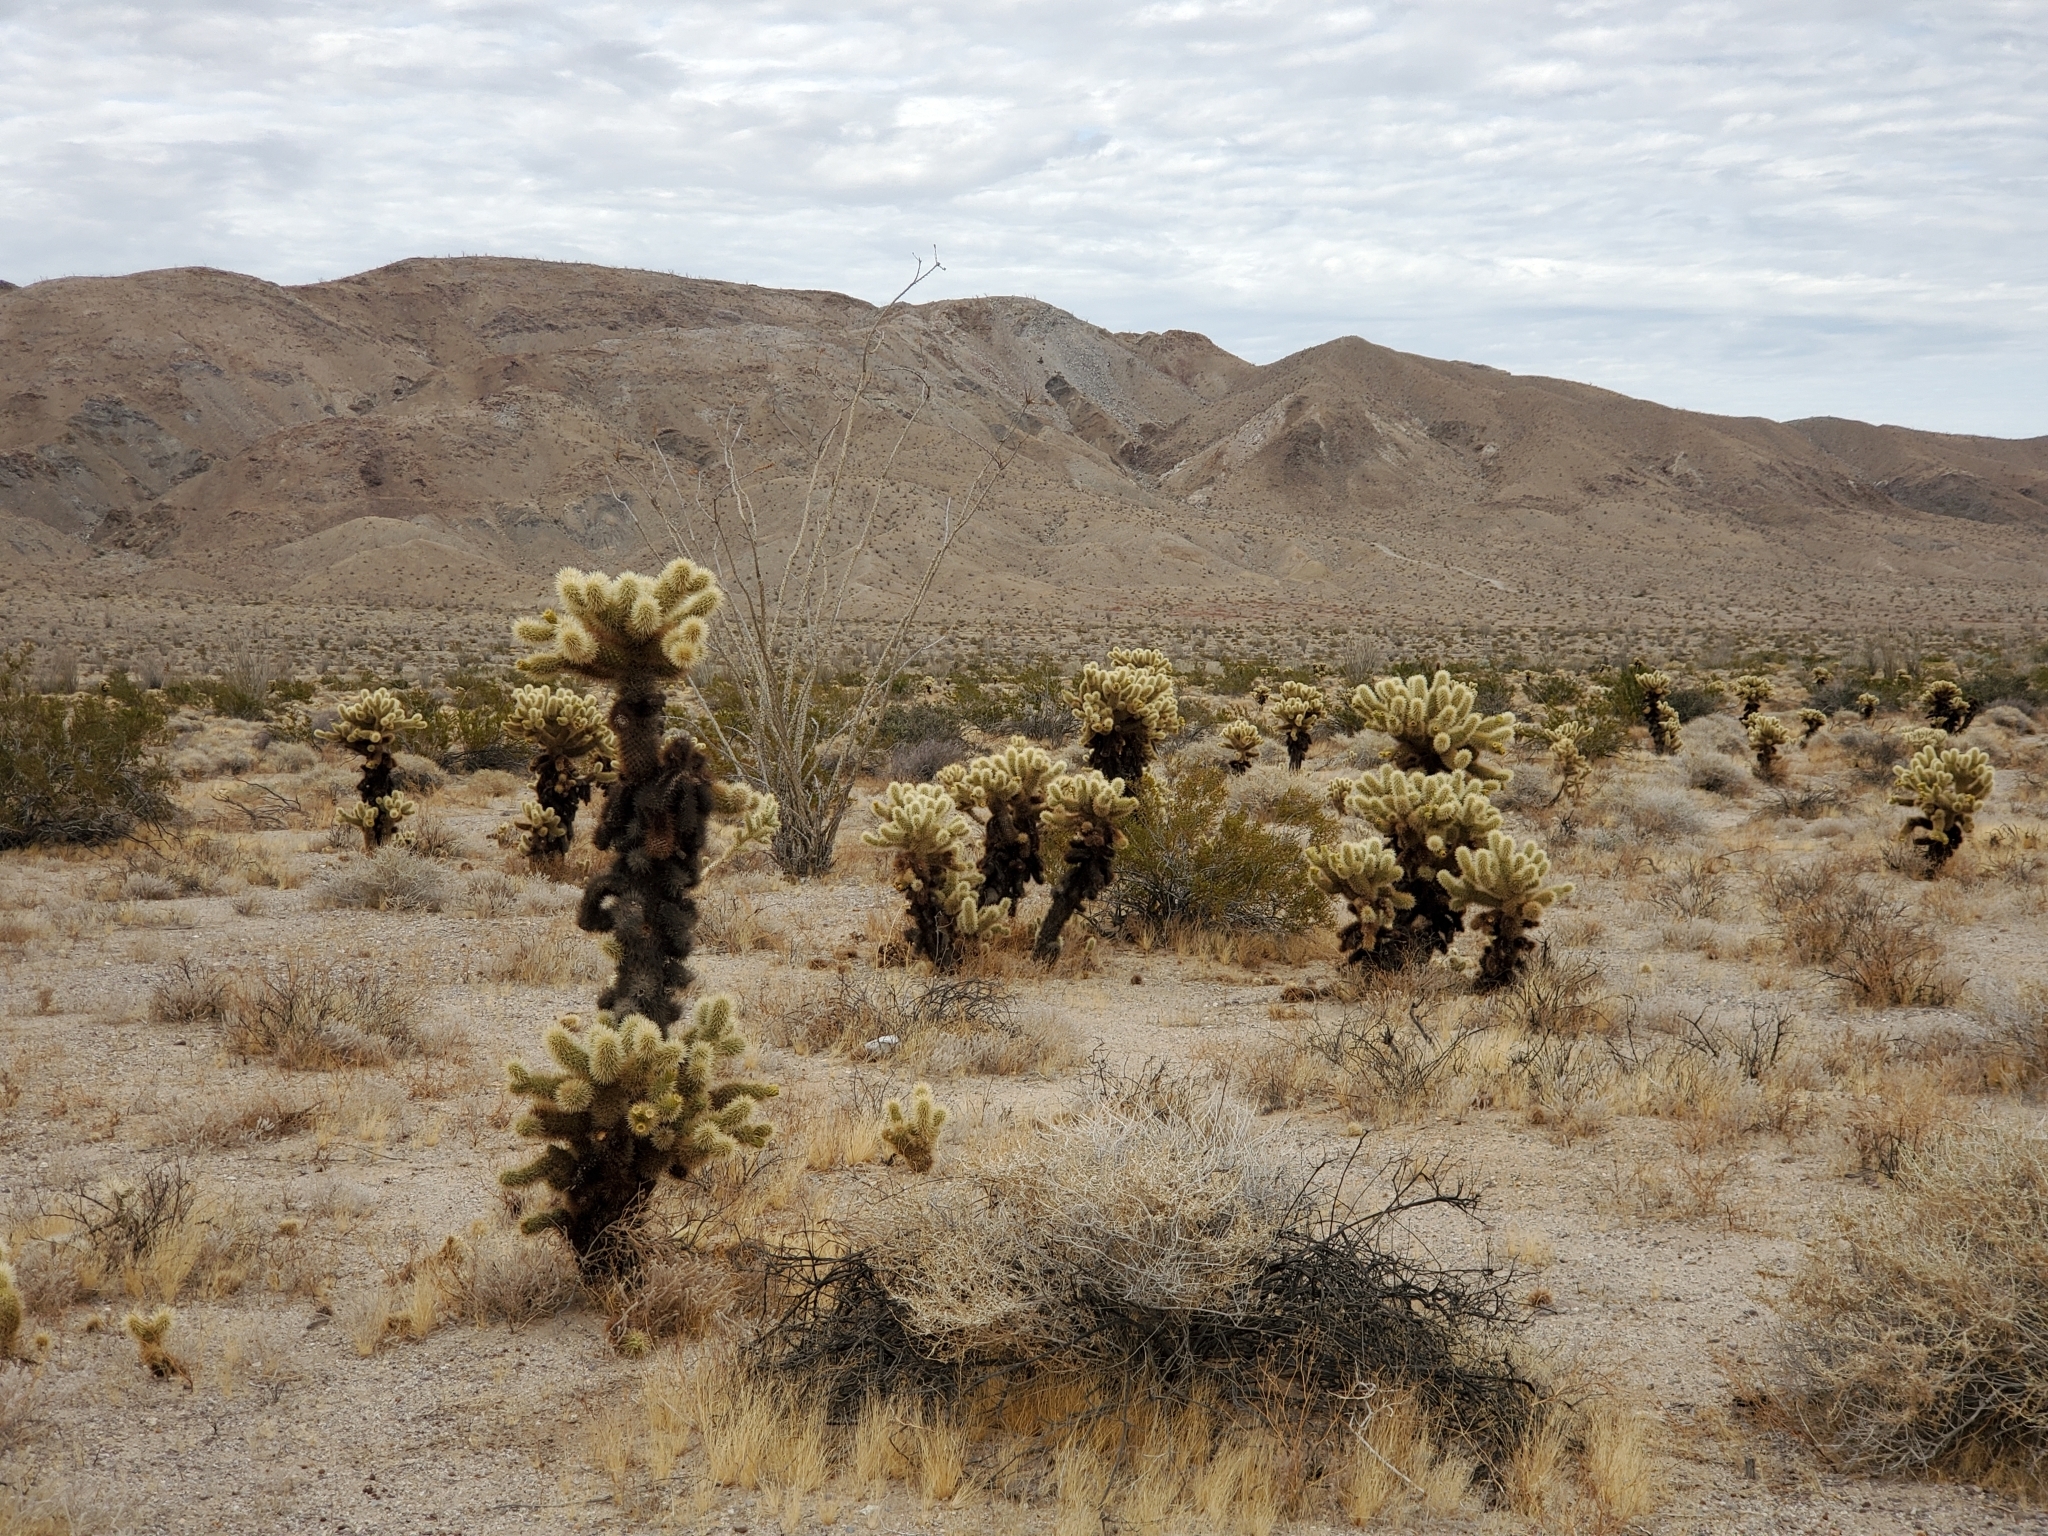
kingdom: Plantae
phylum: Tracheophyta
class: Magnoliopsida
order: Caryophyllales
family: Cactaceae
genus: Cylindropuntia
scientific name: Cylindropuntia fosbergii
